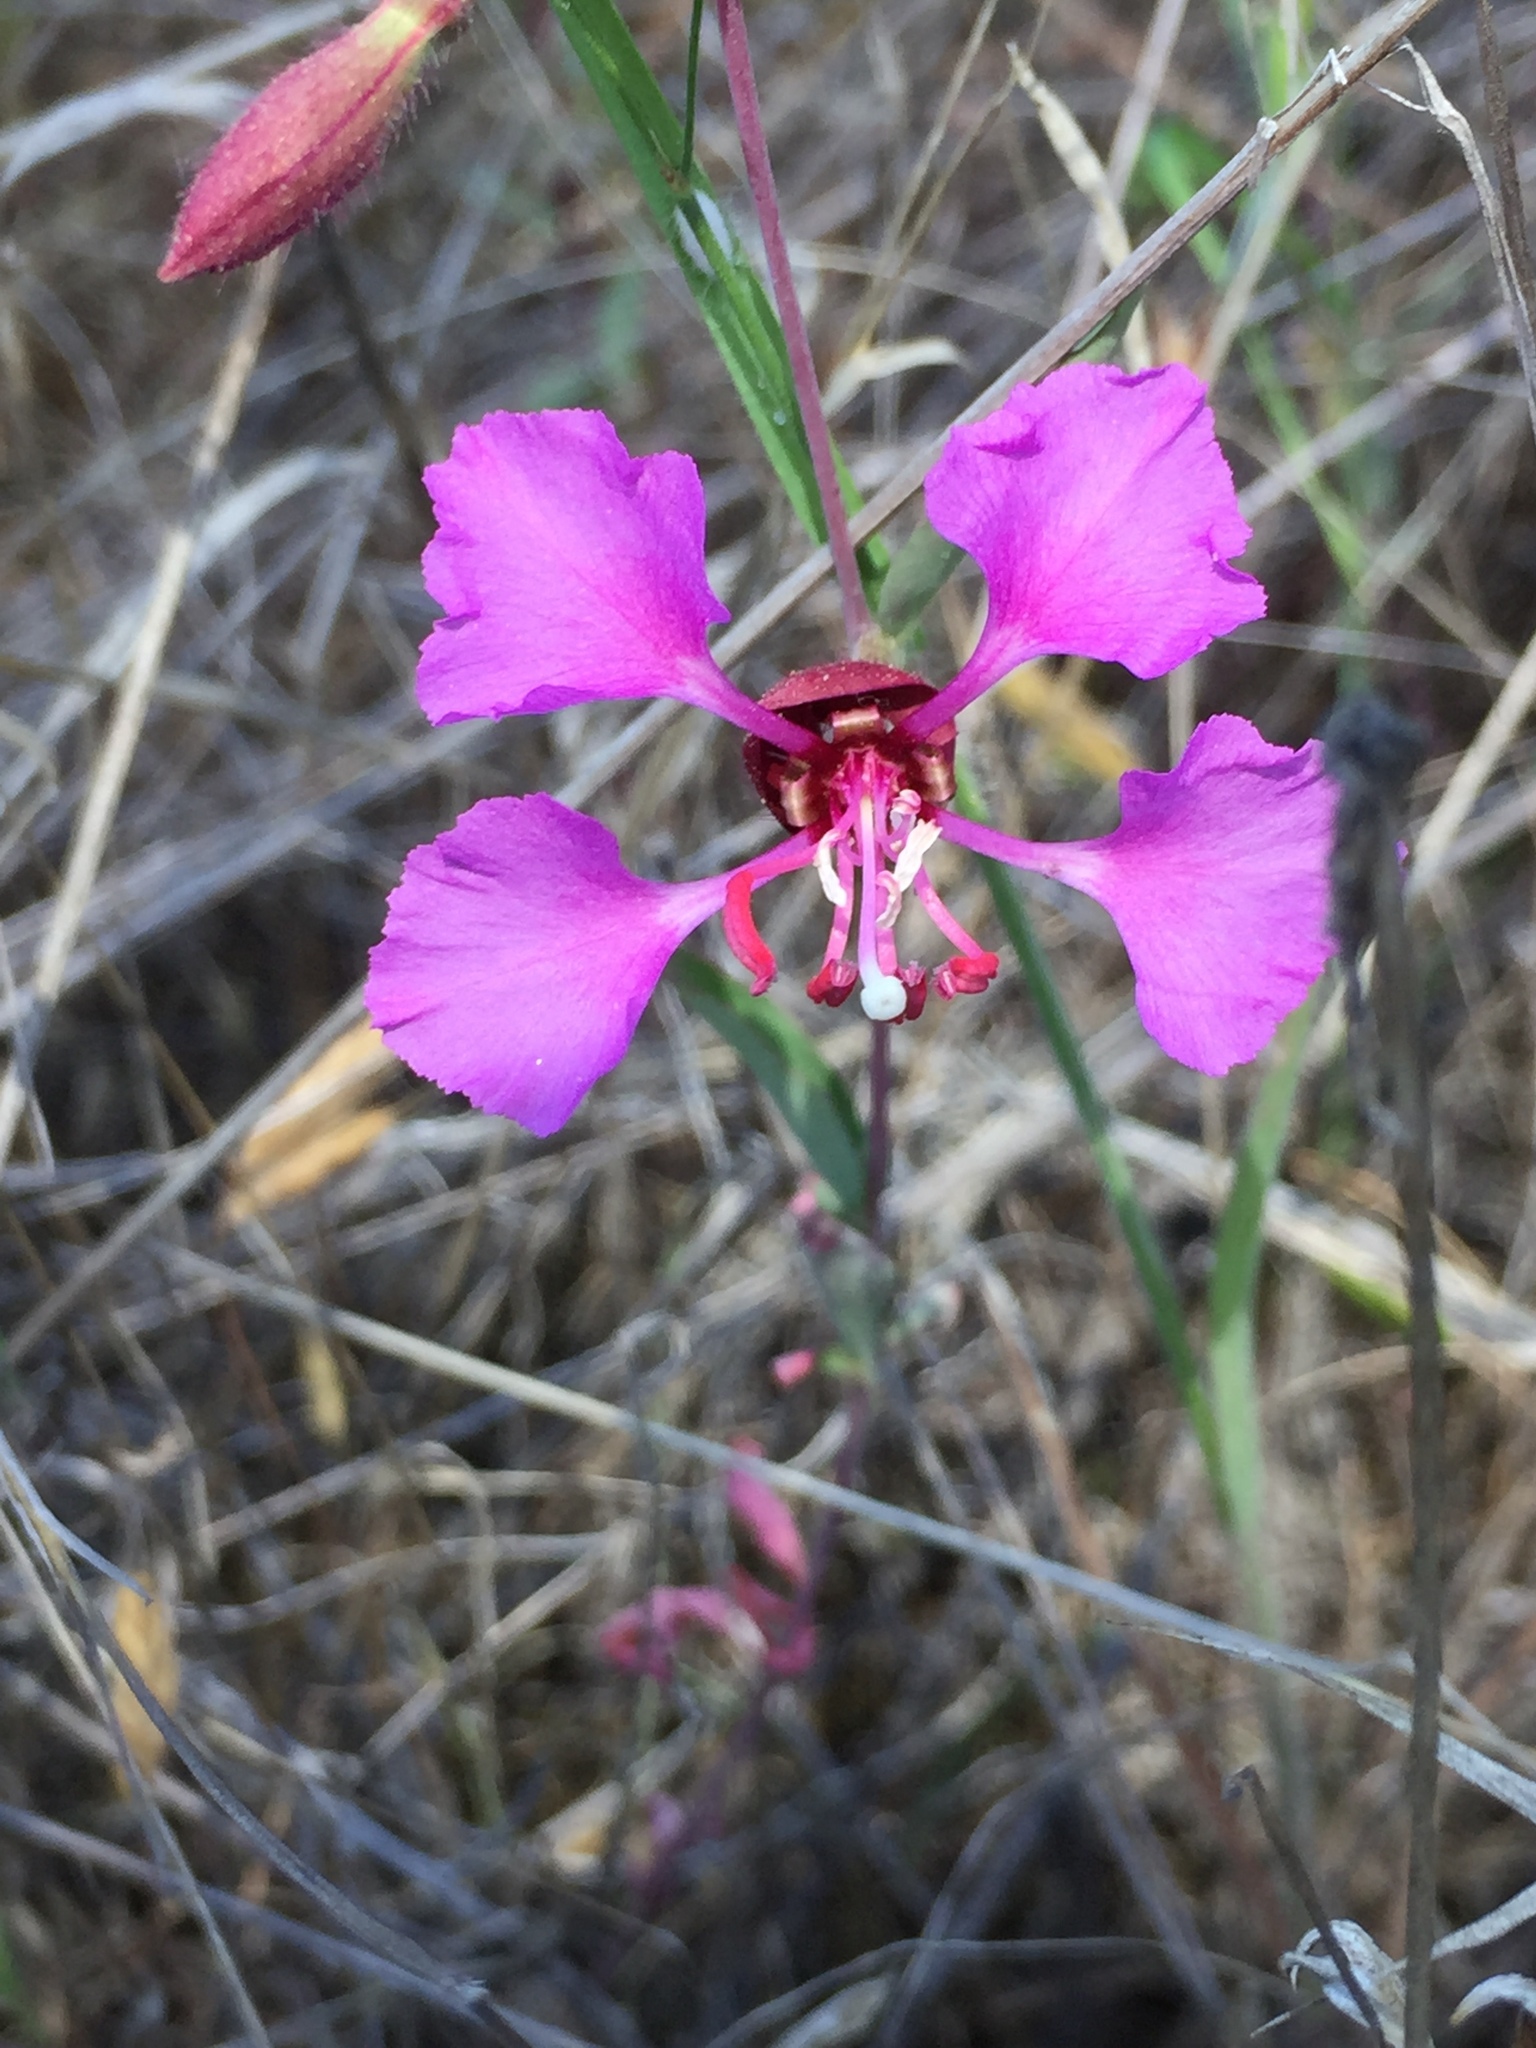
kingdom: Plantae
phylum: Tracheophyta
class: Magnoliopsida
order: Myrtales
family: Onagraceae
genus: Clarkia
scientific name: Clarkia unguiculata
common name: Clarkia
